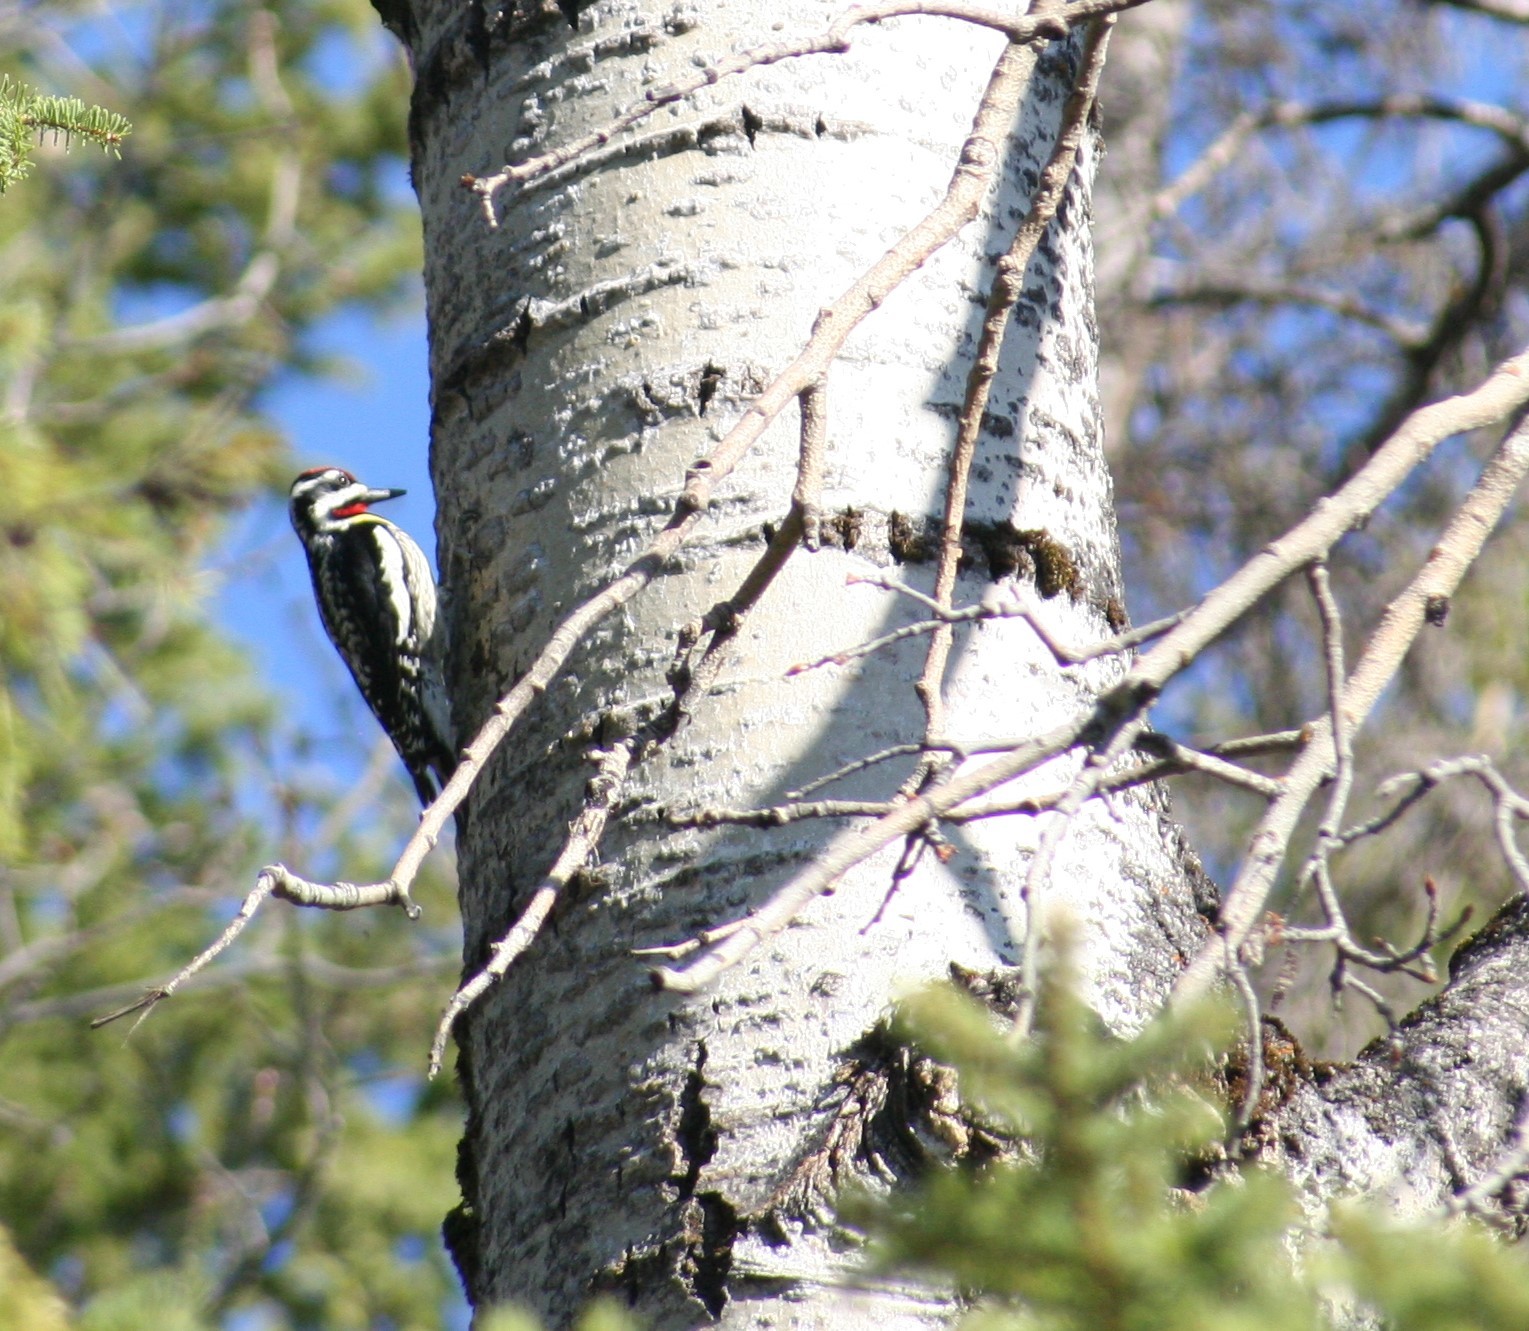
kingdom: Animalia
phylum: Chordata
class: Aves
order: Piciformes
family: Picidae
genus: Sphyrapicus
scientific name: Sphyrapicus varius
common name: Yellow-bellied sapsucker
